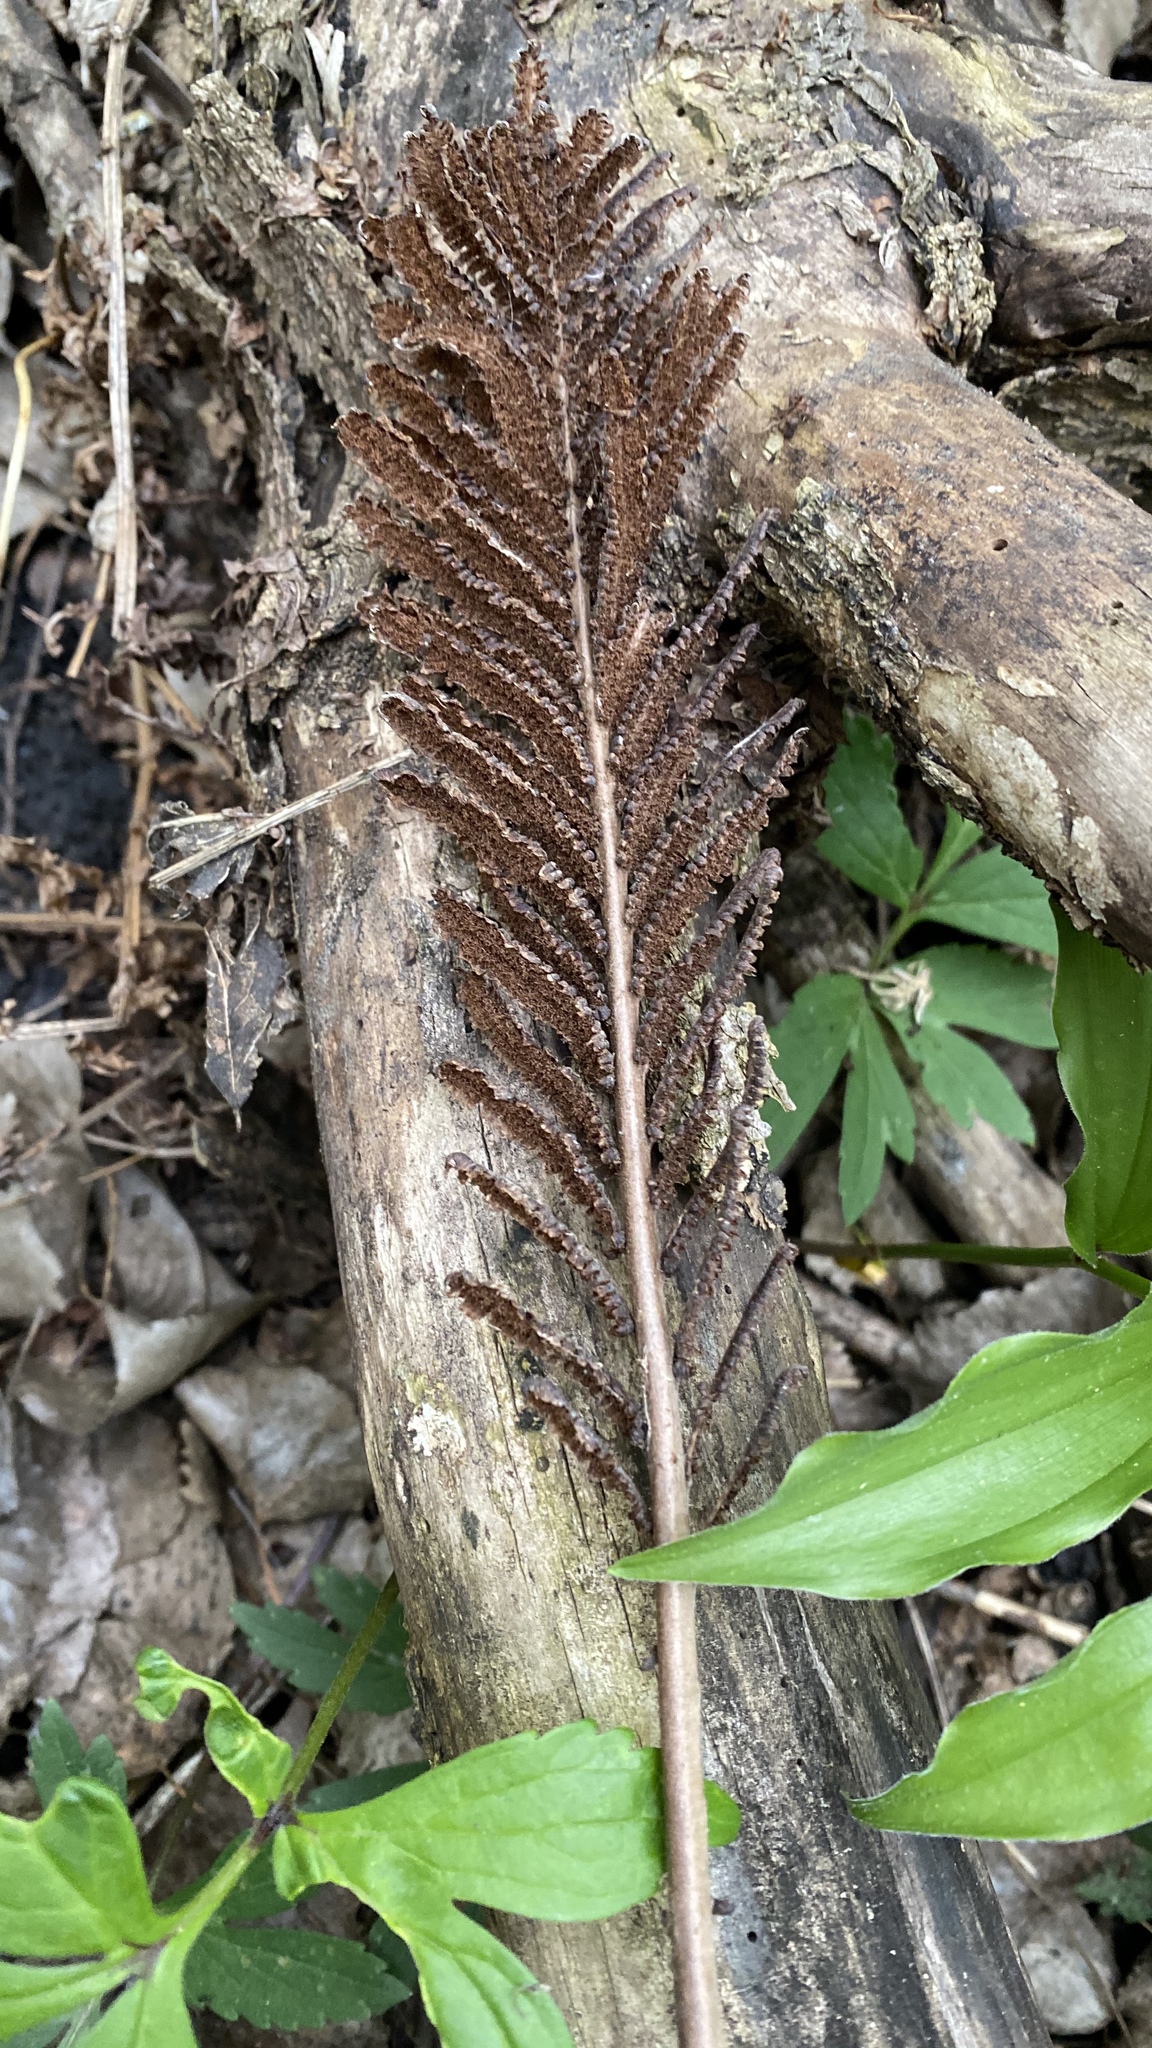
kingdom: Plantae
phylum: Tracheophyta
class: Polypodiopsida
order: Polypodiales
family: Onocleaceae
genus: Matteuccia
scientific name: Matteuccia struthiopteris
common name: Ostrich fern
